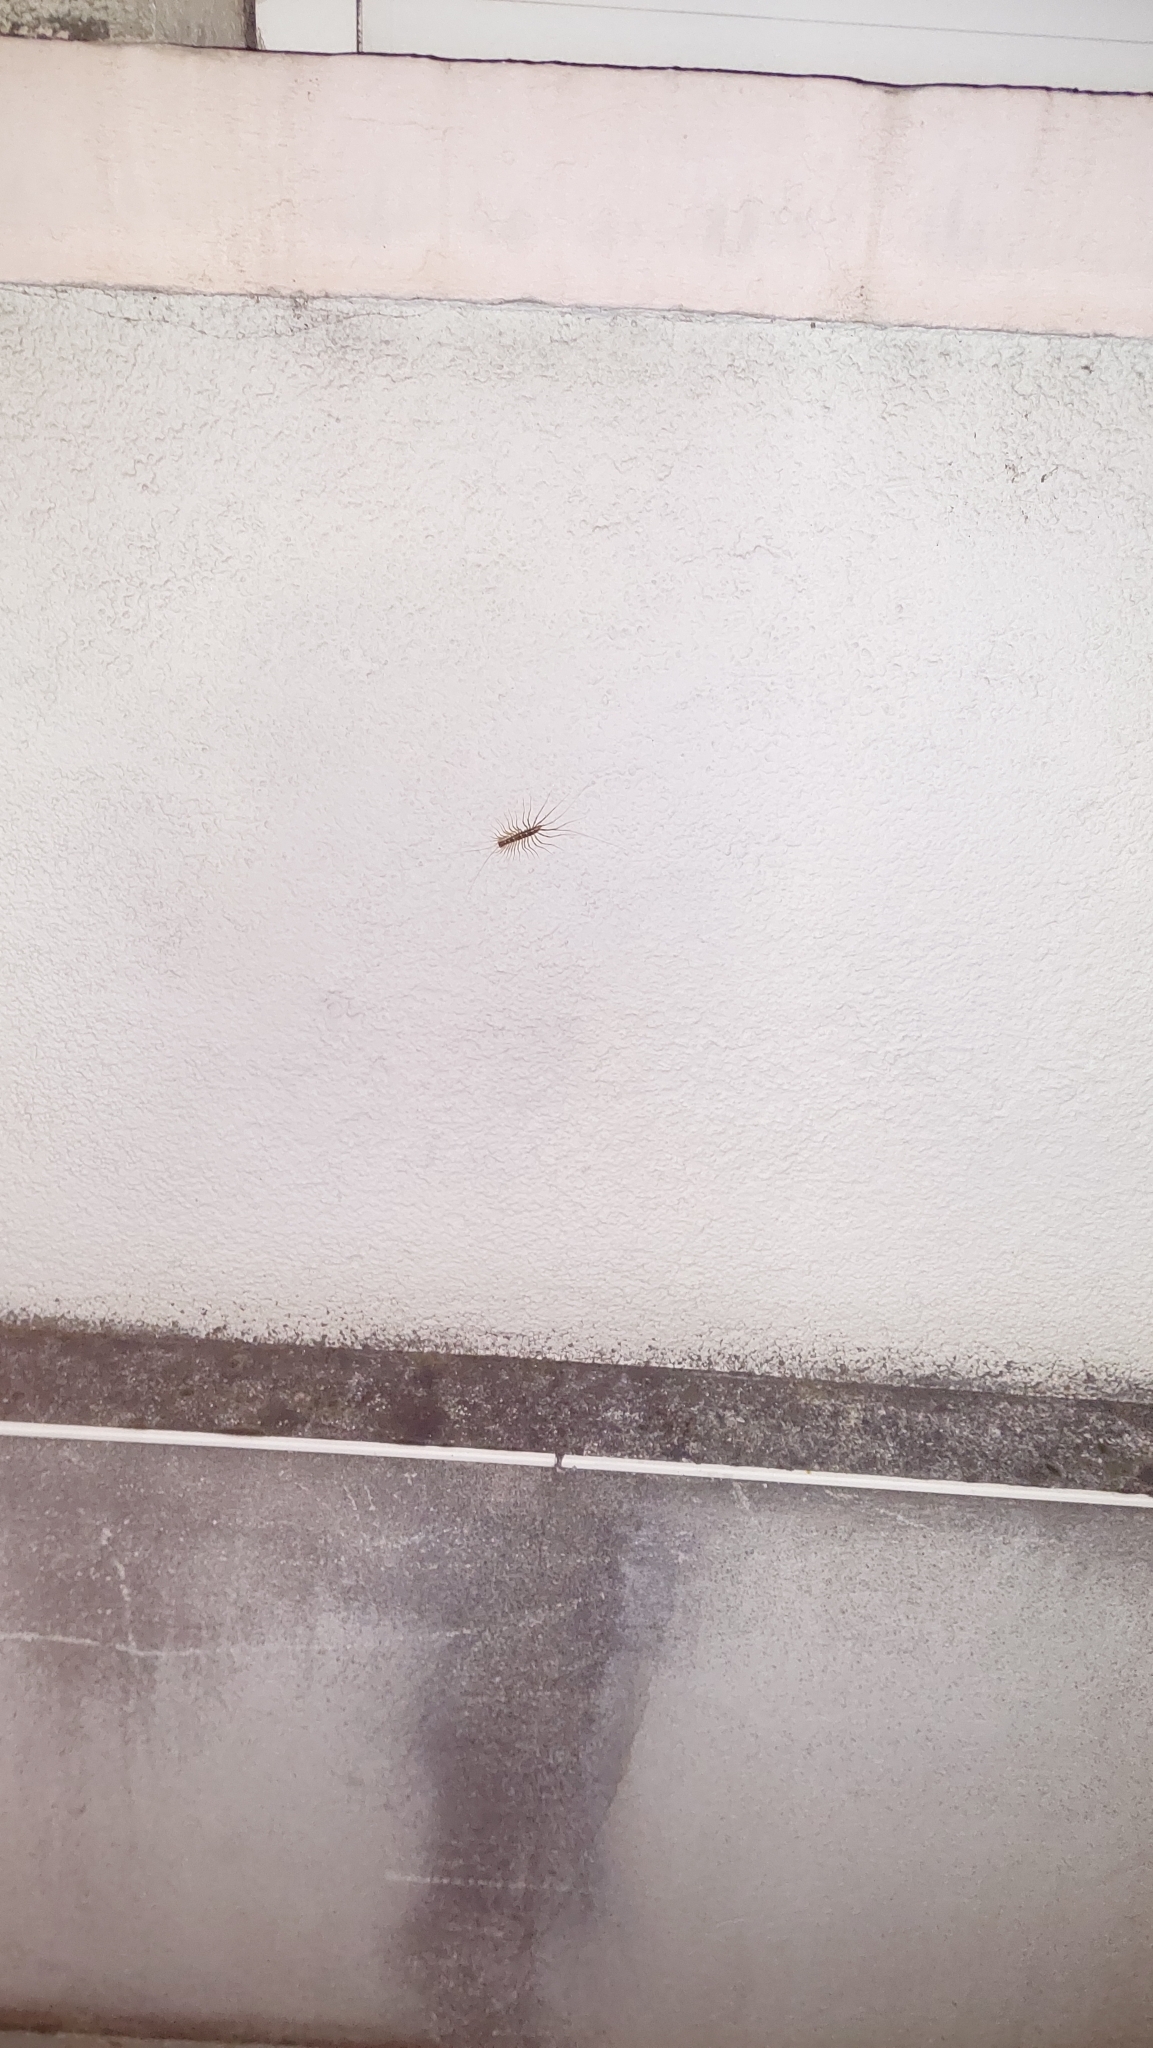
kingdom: Animalia
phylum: Arthropoda
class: Chilopoda
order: Scutigeromorpha
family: Scutigeridae
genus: Scutigera
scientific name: Scutigera coleoptrata
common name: House centipede
